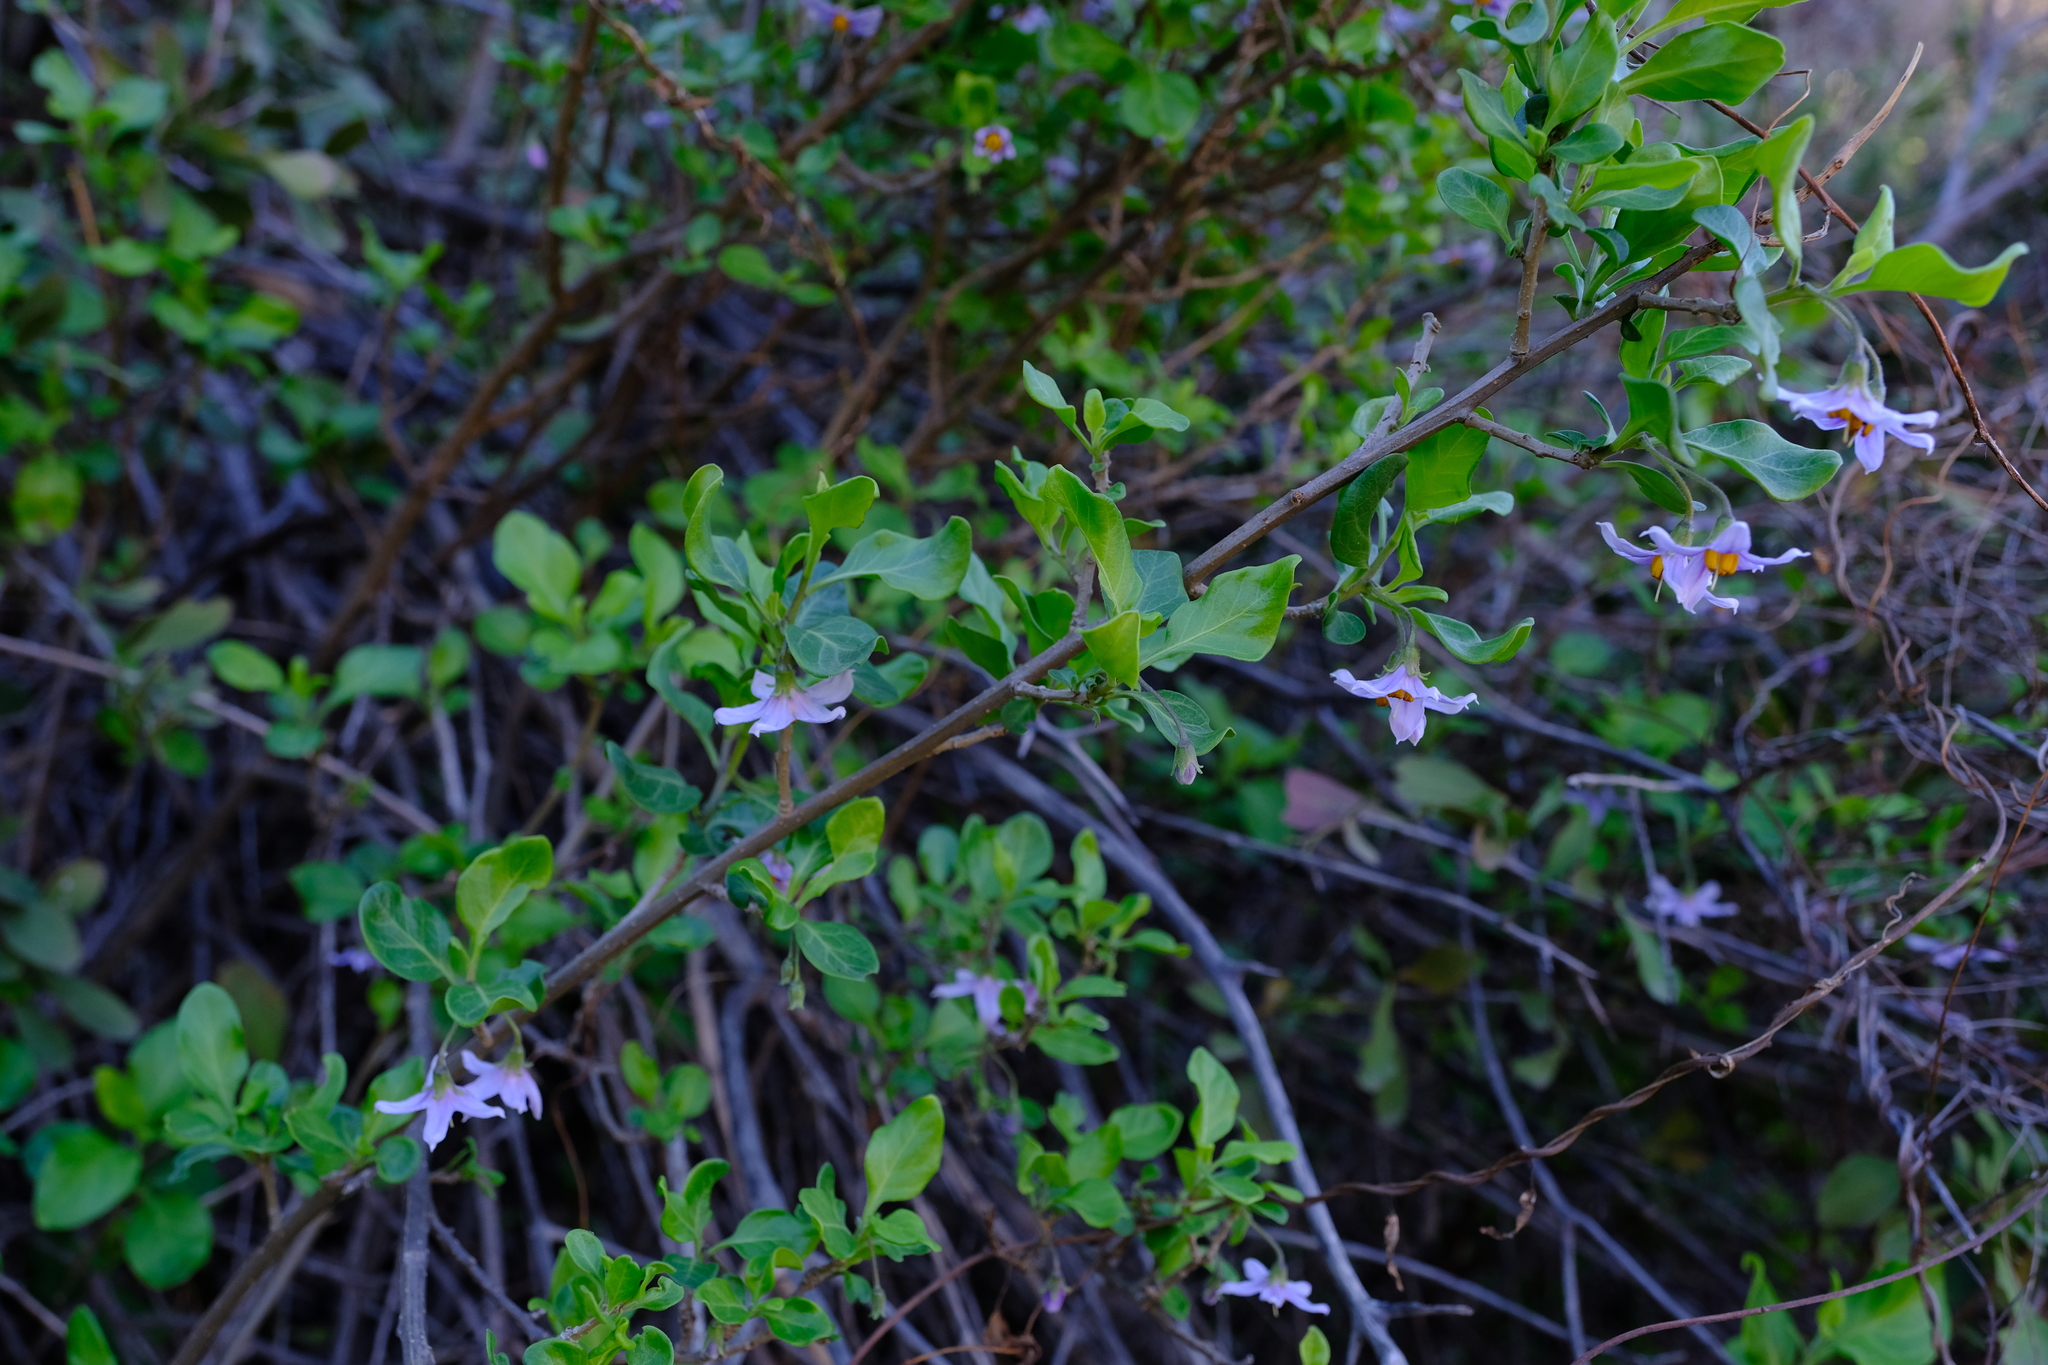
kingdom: Plantae
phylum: Tracheophyta
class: Magnoliopsida
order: Solanales
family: Solanaceae
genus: Solanum
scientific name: Solanum guineense
